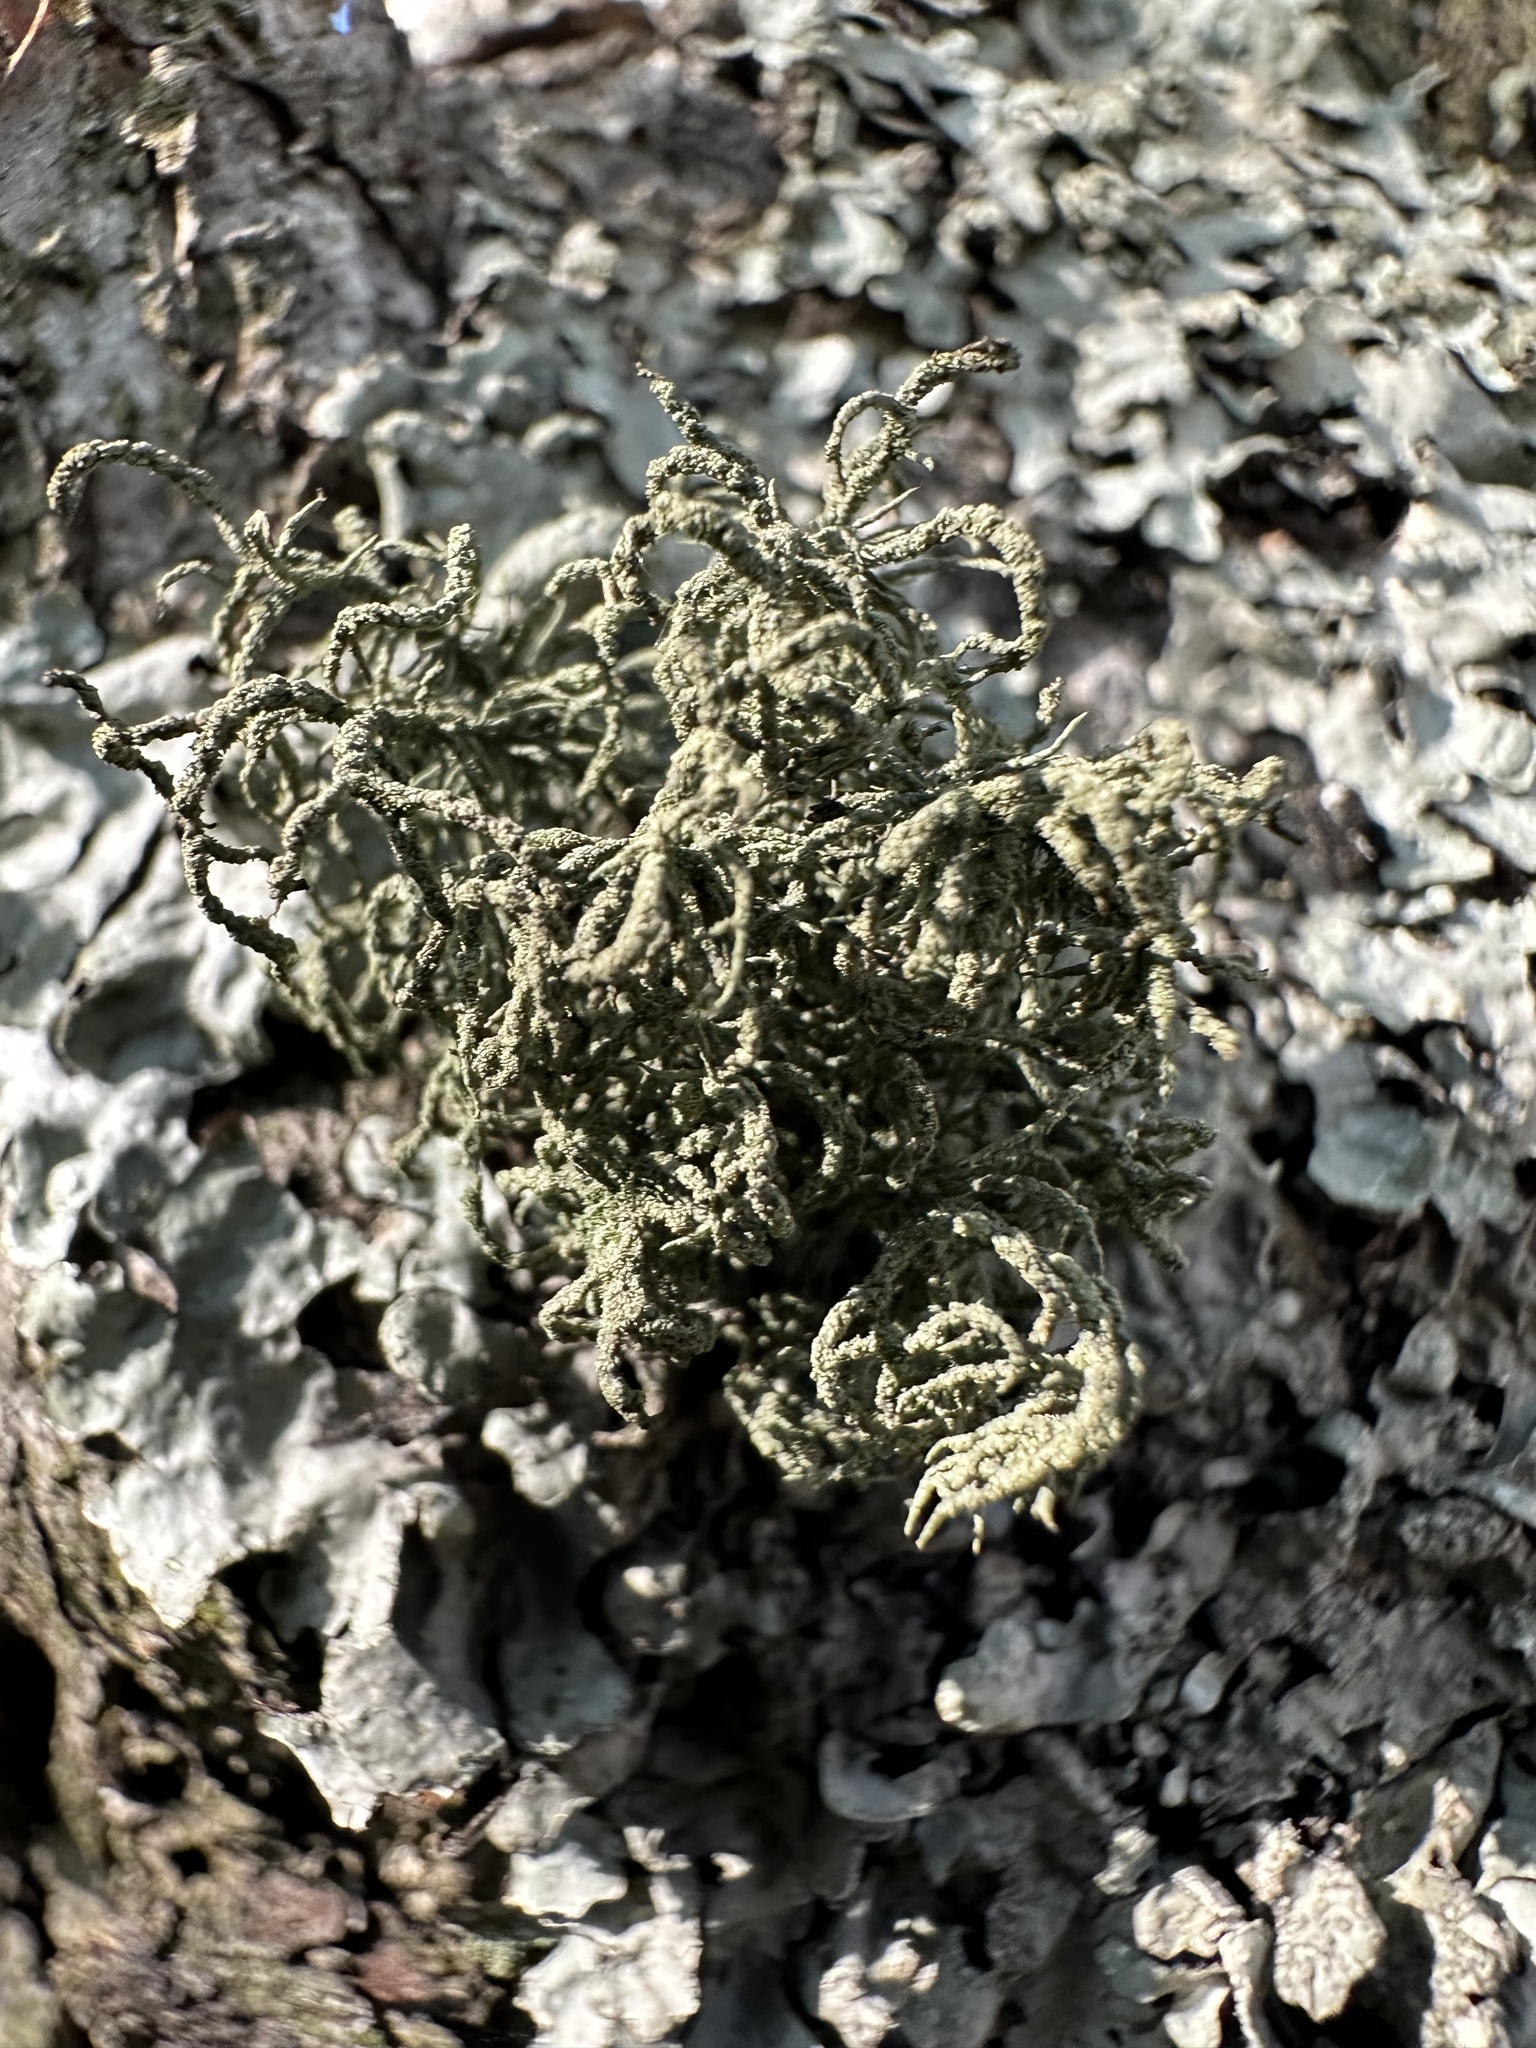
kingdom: Fungi
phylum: Ascomycota
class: Lecanoromycetes
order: Lecanorales
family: Parmeliaceae
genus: Usnea
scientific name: Usnea hirta
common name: Bristly beard lichen
